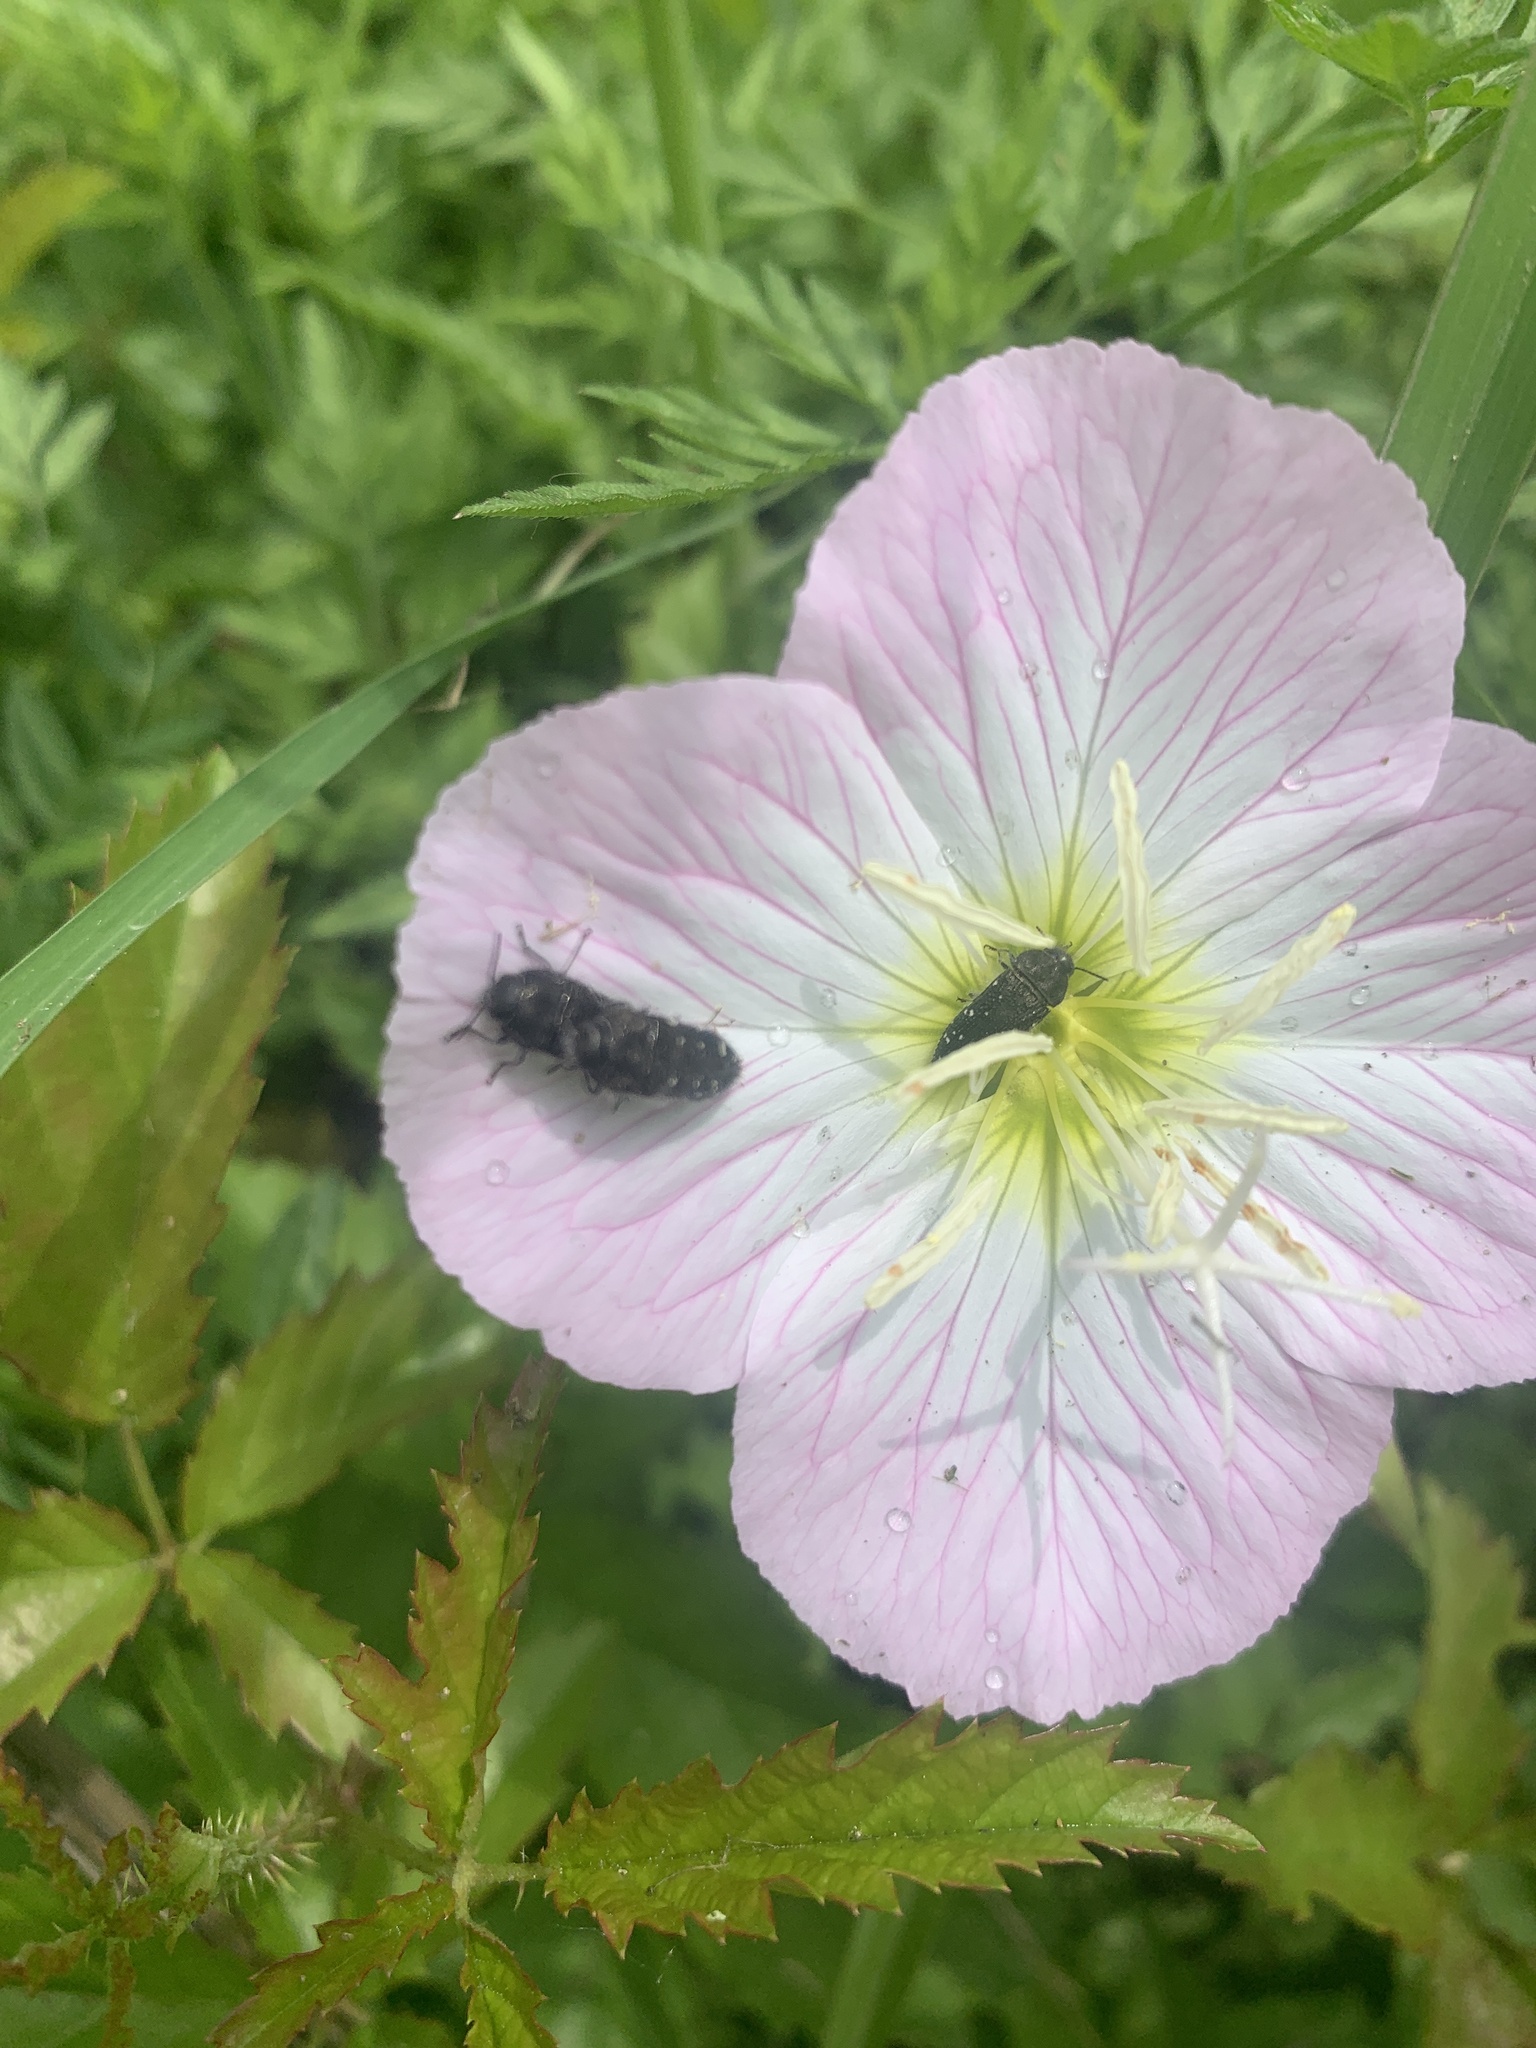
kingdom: Animalia
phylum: Arthropoda
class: Insecta
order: Coleoptera
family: Buprestidae
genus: Acmaeodera
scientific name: Acmaeodera ornatoides
